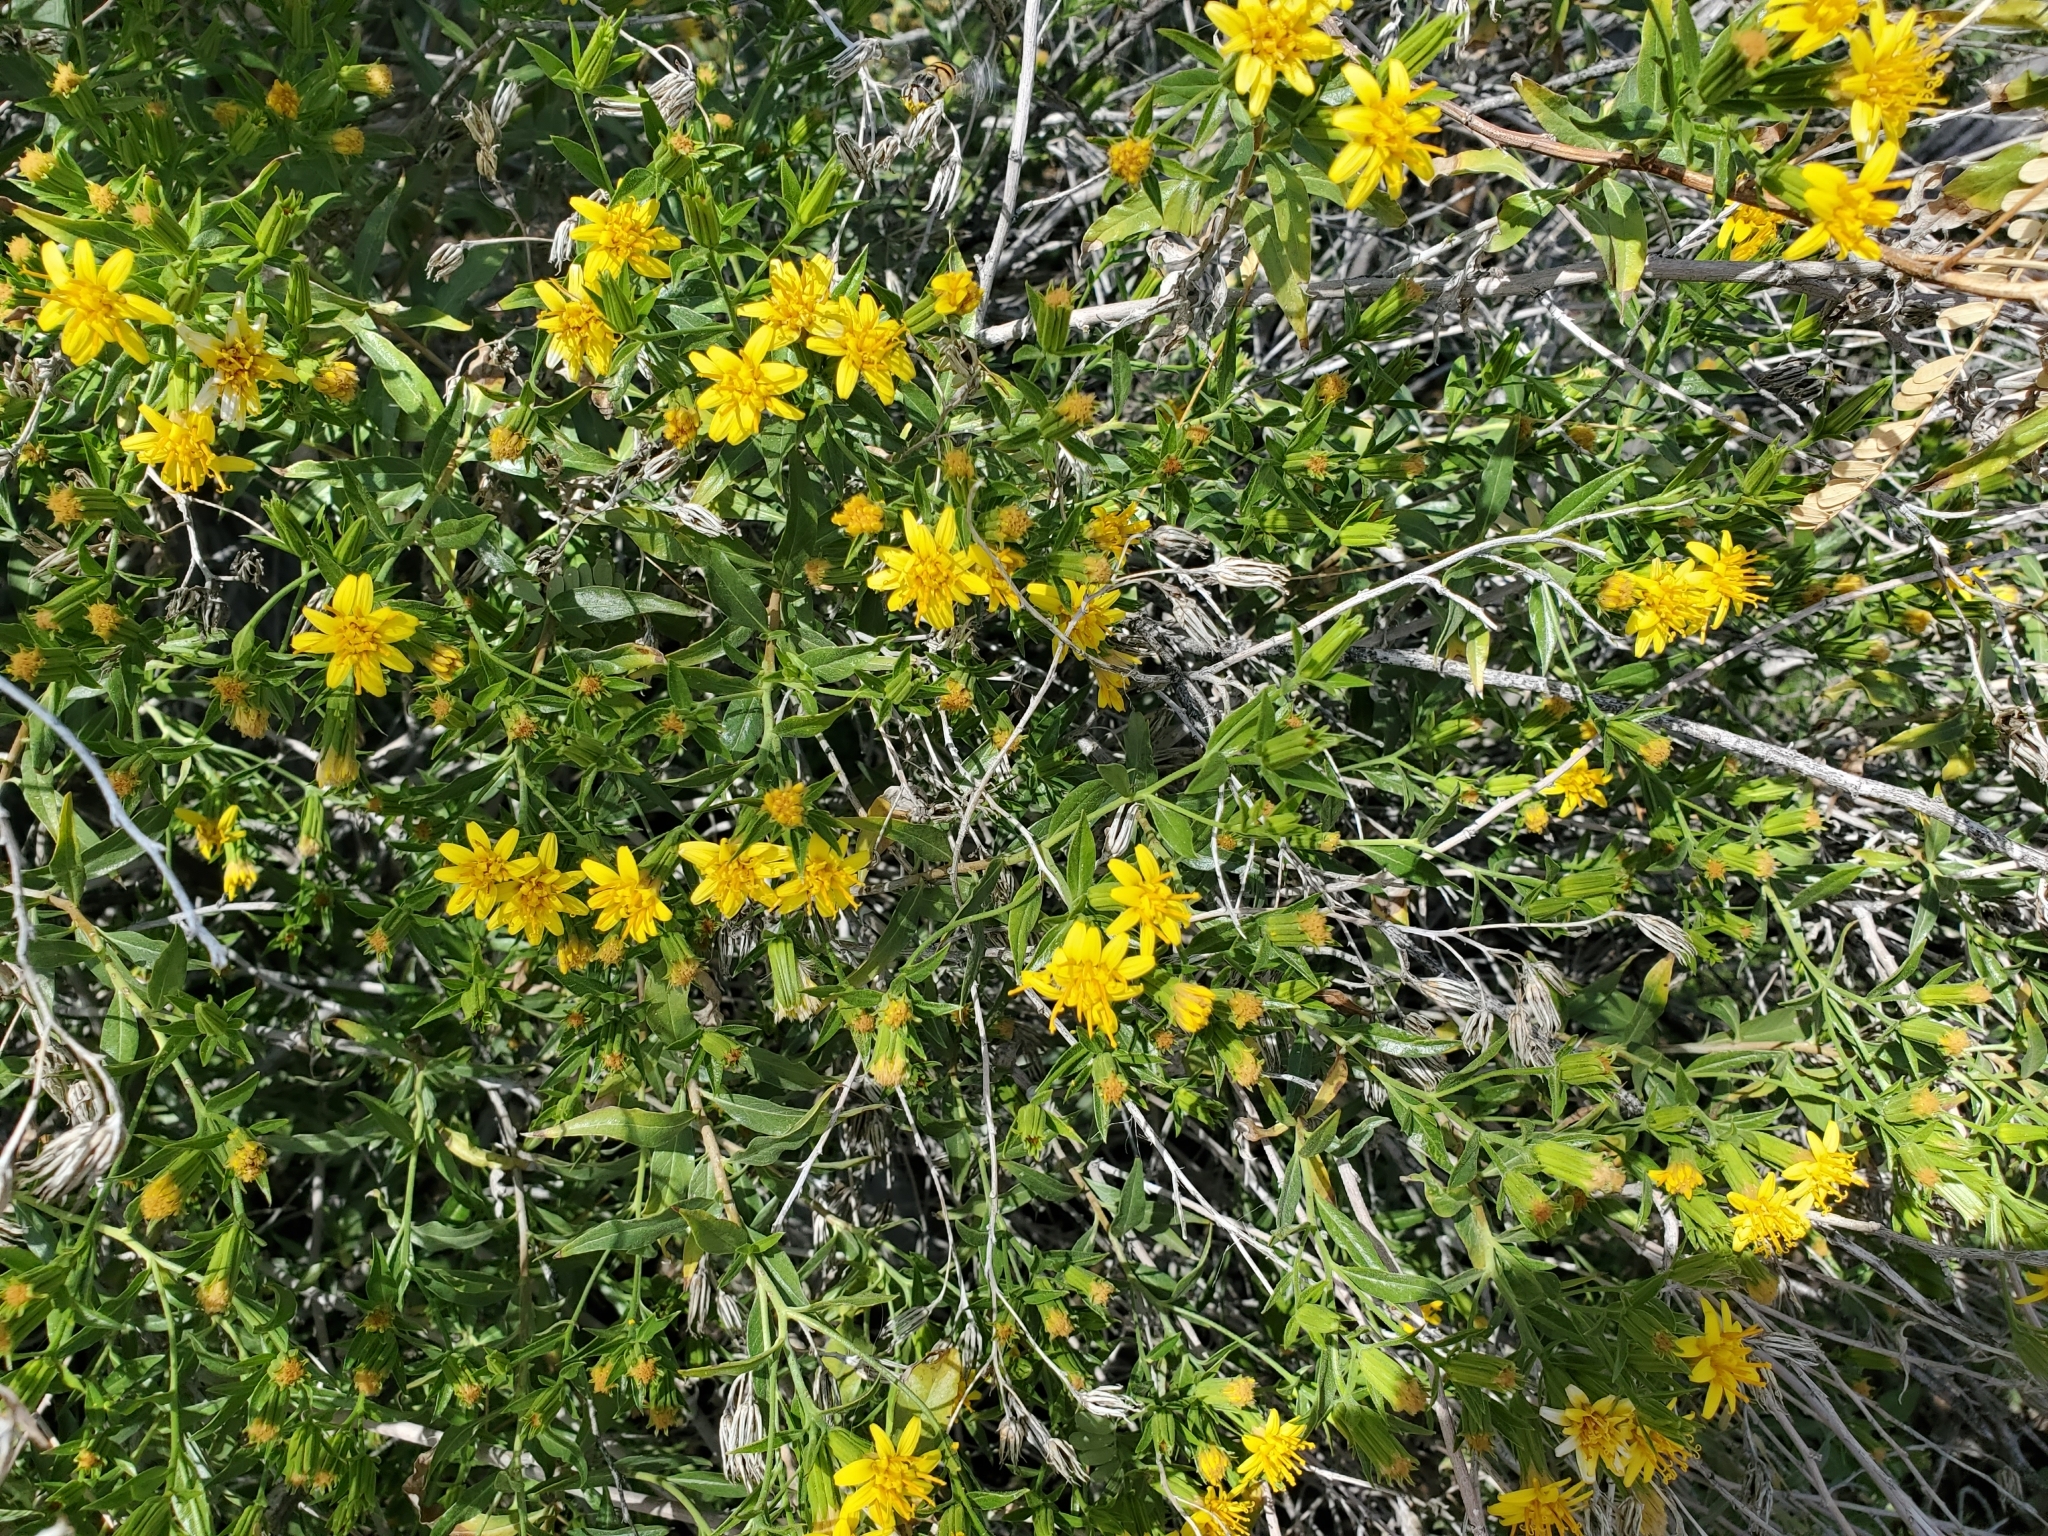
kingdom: Plantae
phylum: Tracheophyta
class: Magnoliopsida
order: Asterales
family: Asteraceae
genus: Trixis
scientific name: Trixis californica
